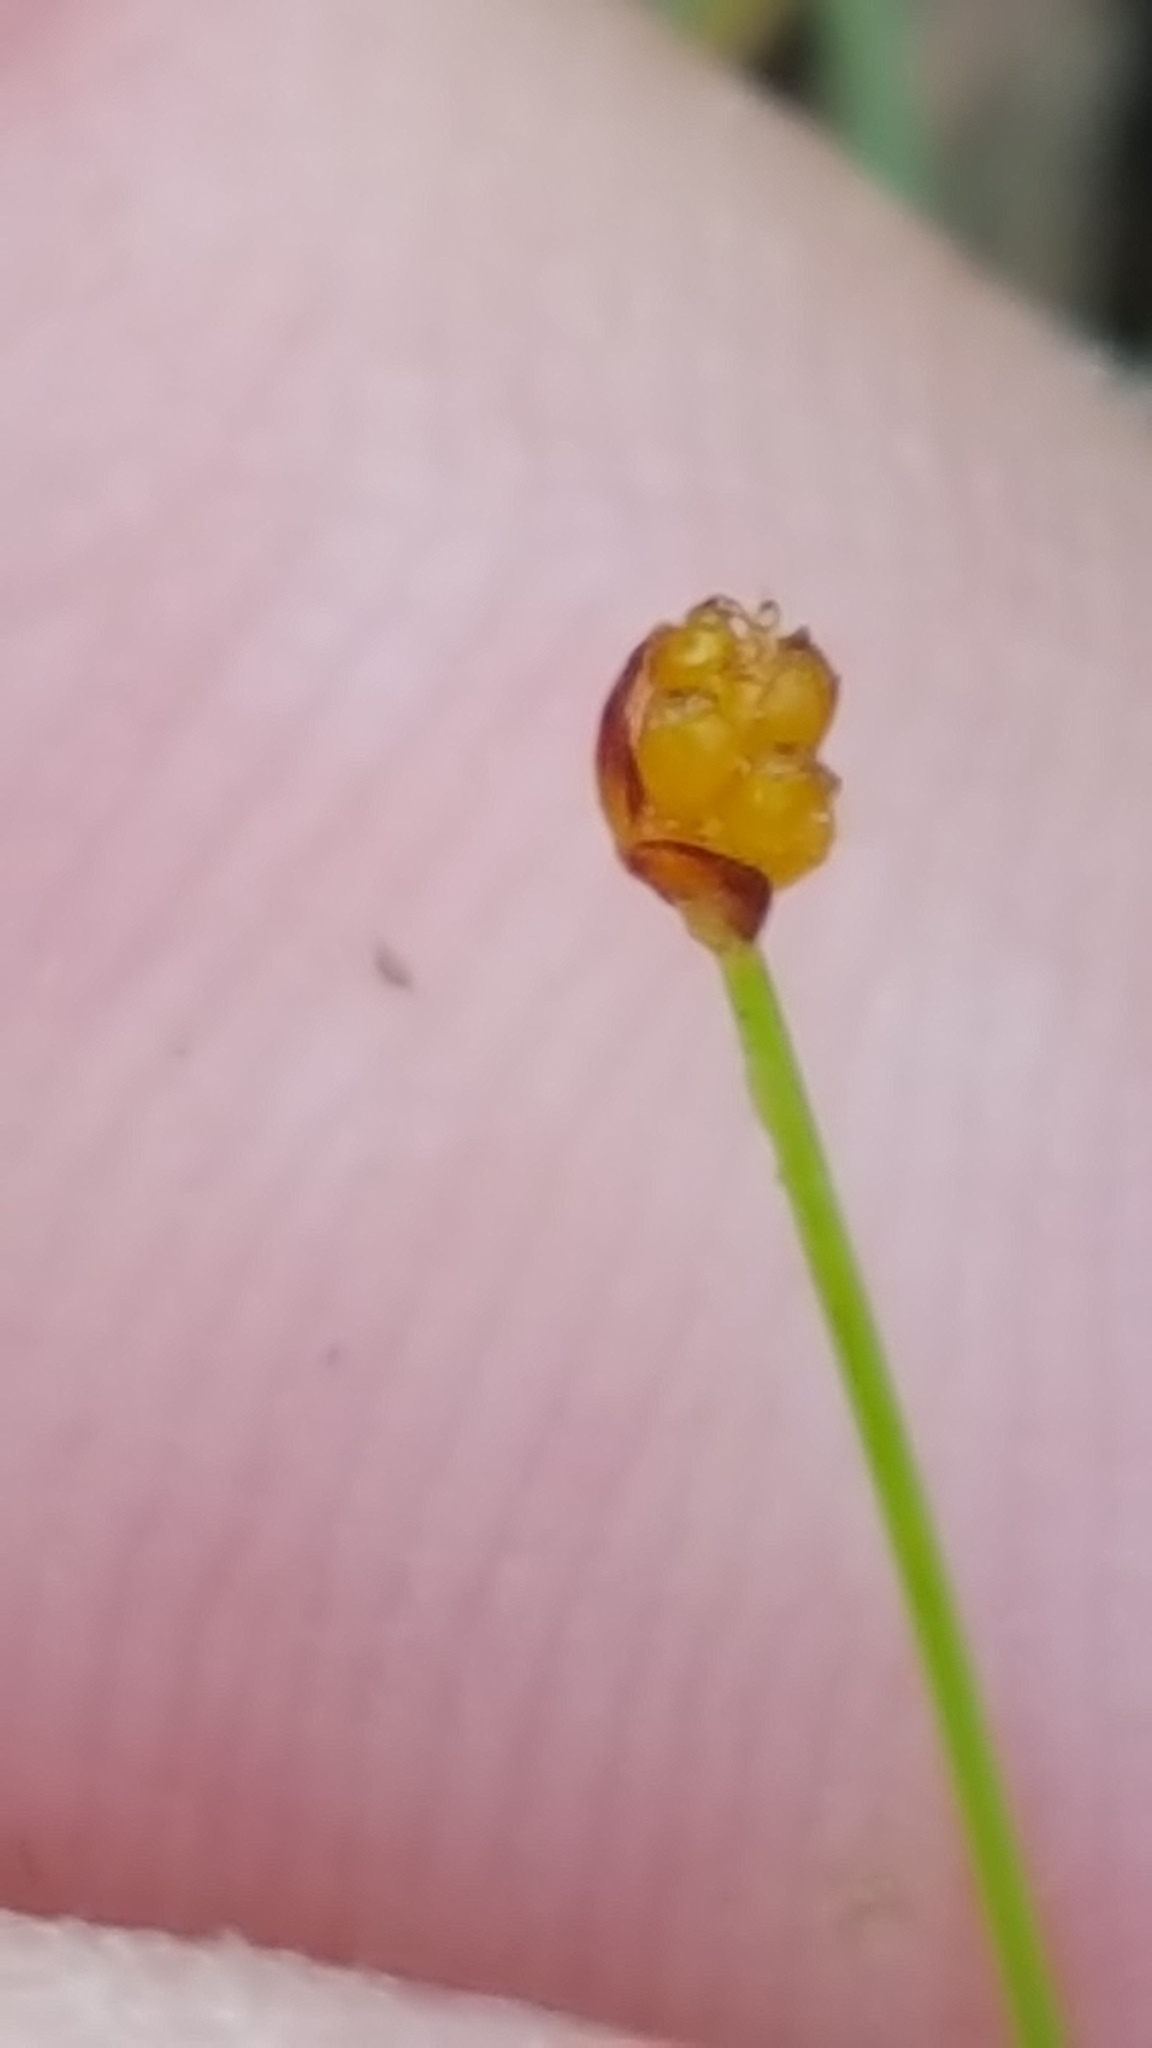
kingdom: Plantae
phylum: Tracheophyta
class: Liliopsida
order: Poales
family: Cyperaceae
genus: Eleocharis
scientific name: Eleocharis nitida
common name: Neat spikerush
